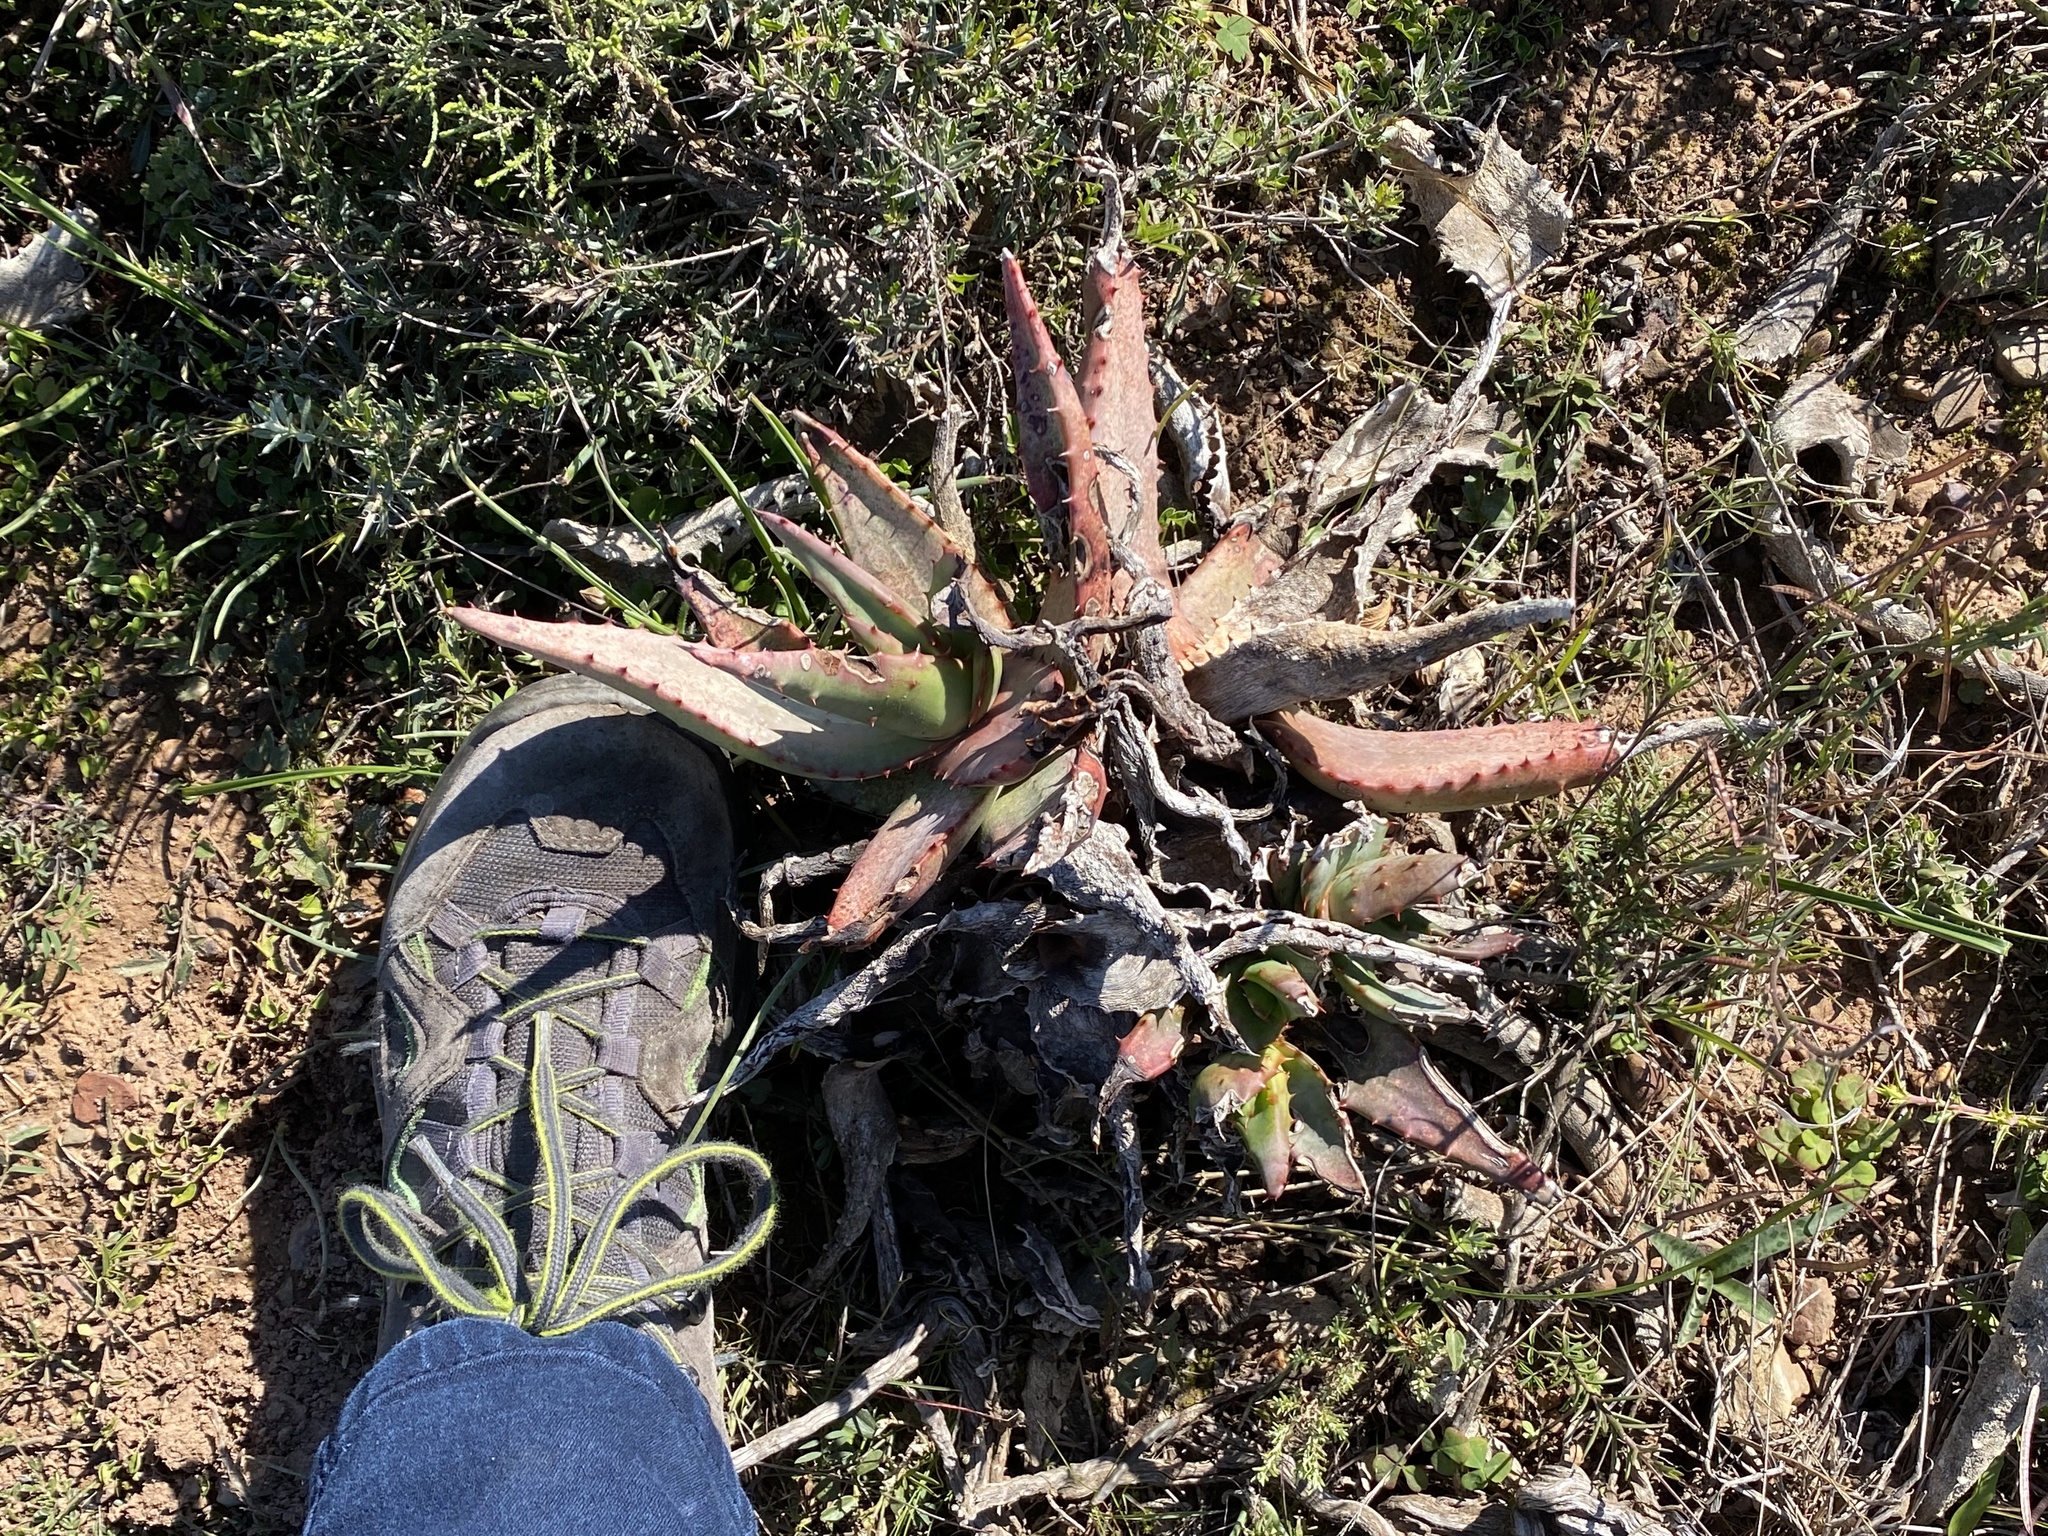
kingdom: Plantae
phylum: Tracheophyta
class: Liliopsida
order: Asparagales
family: Asphodelaceae
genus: Aloe
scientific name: Aloe ferox
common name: Bitter aloe
